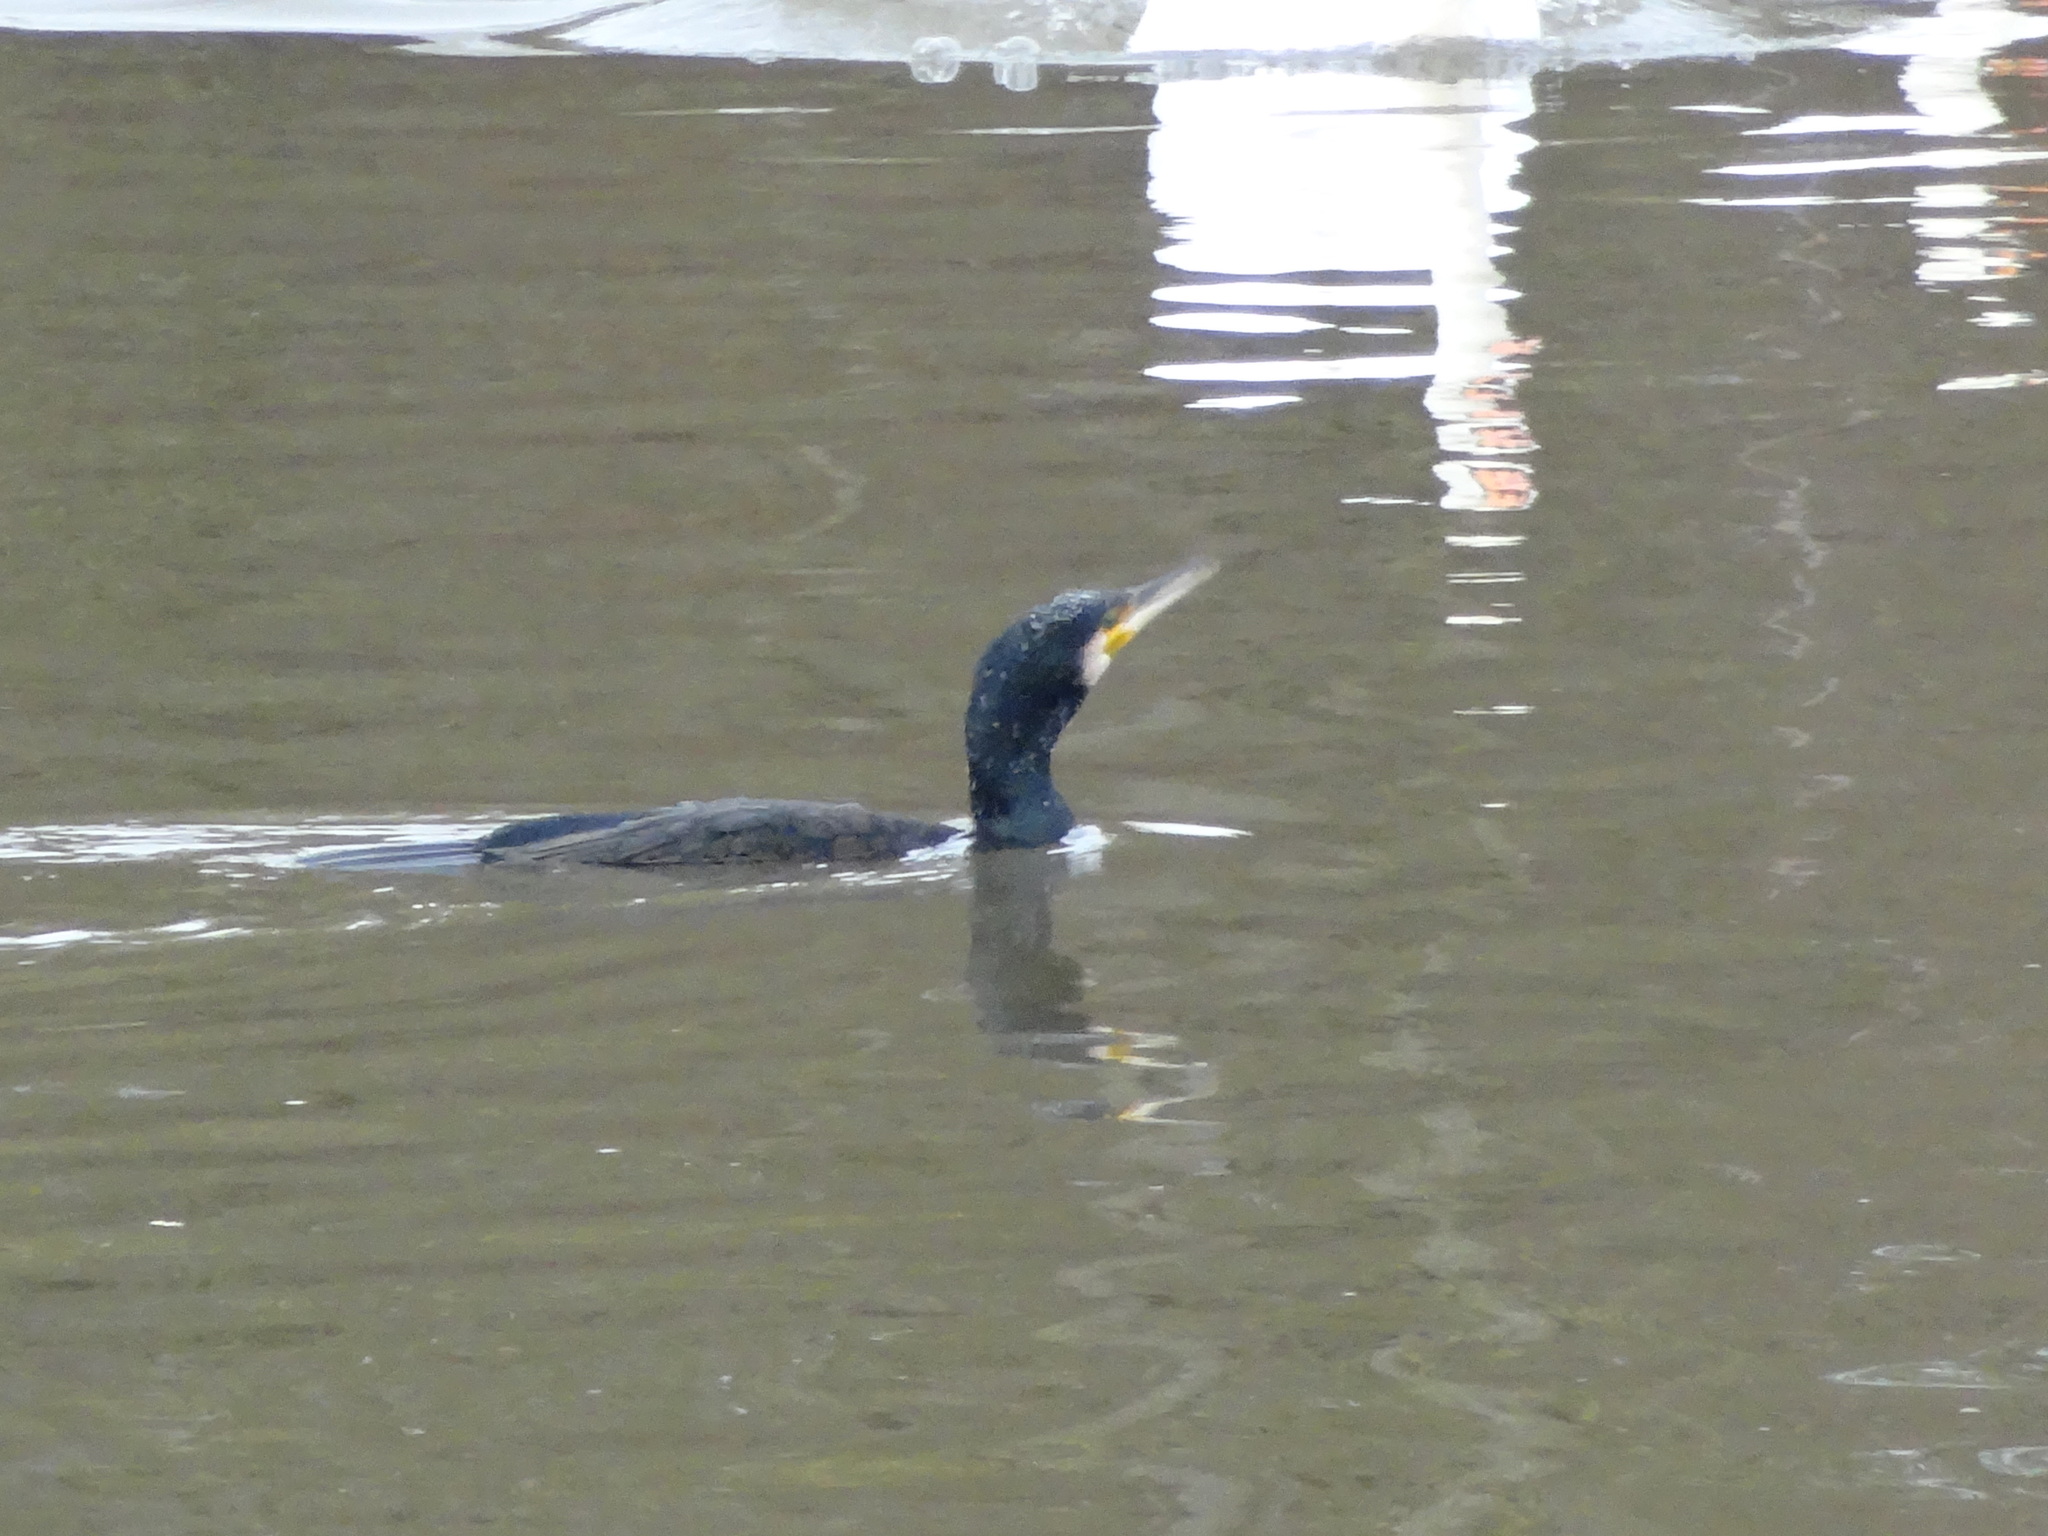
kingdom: Animalia
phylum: Chordata
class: Aves
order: Suliformes
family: Phalacrocoracidae
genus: Phalacrocorax
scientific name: Phalacrocorax carbo
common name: Great cormorant
